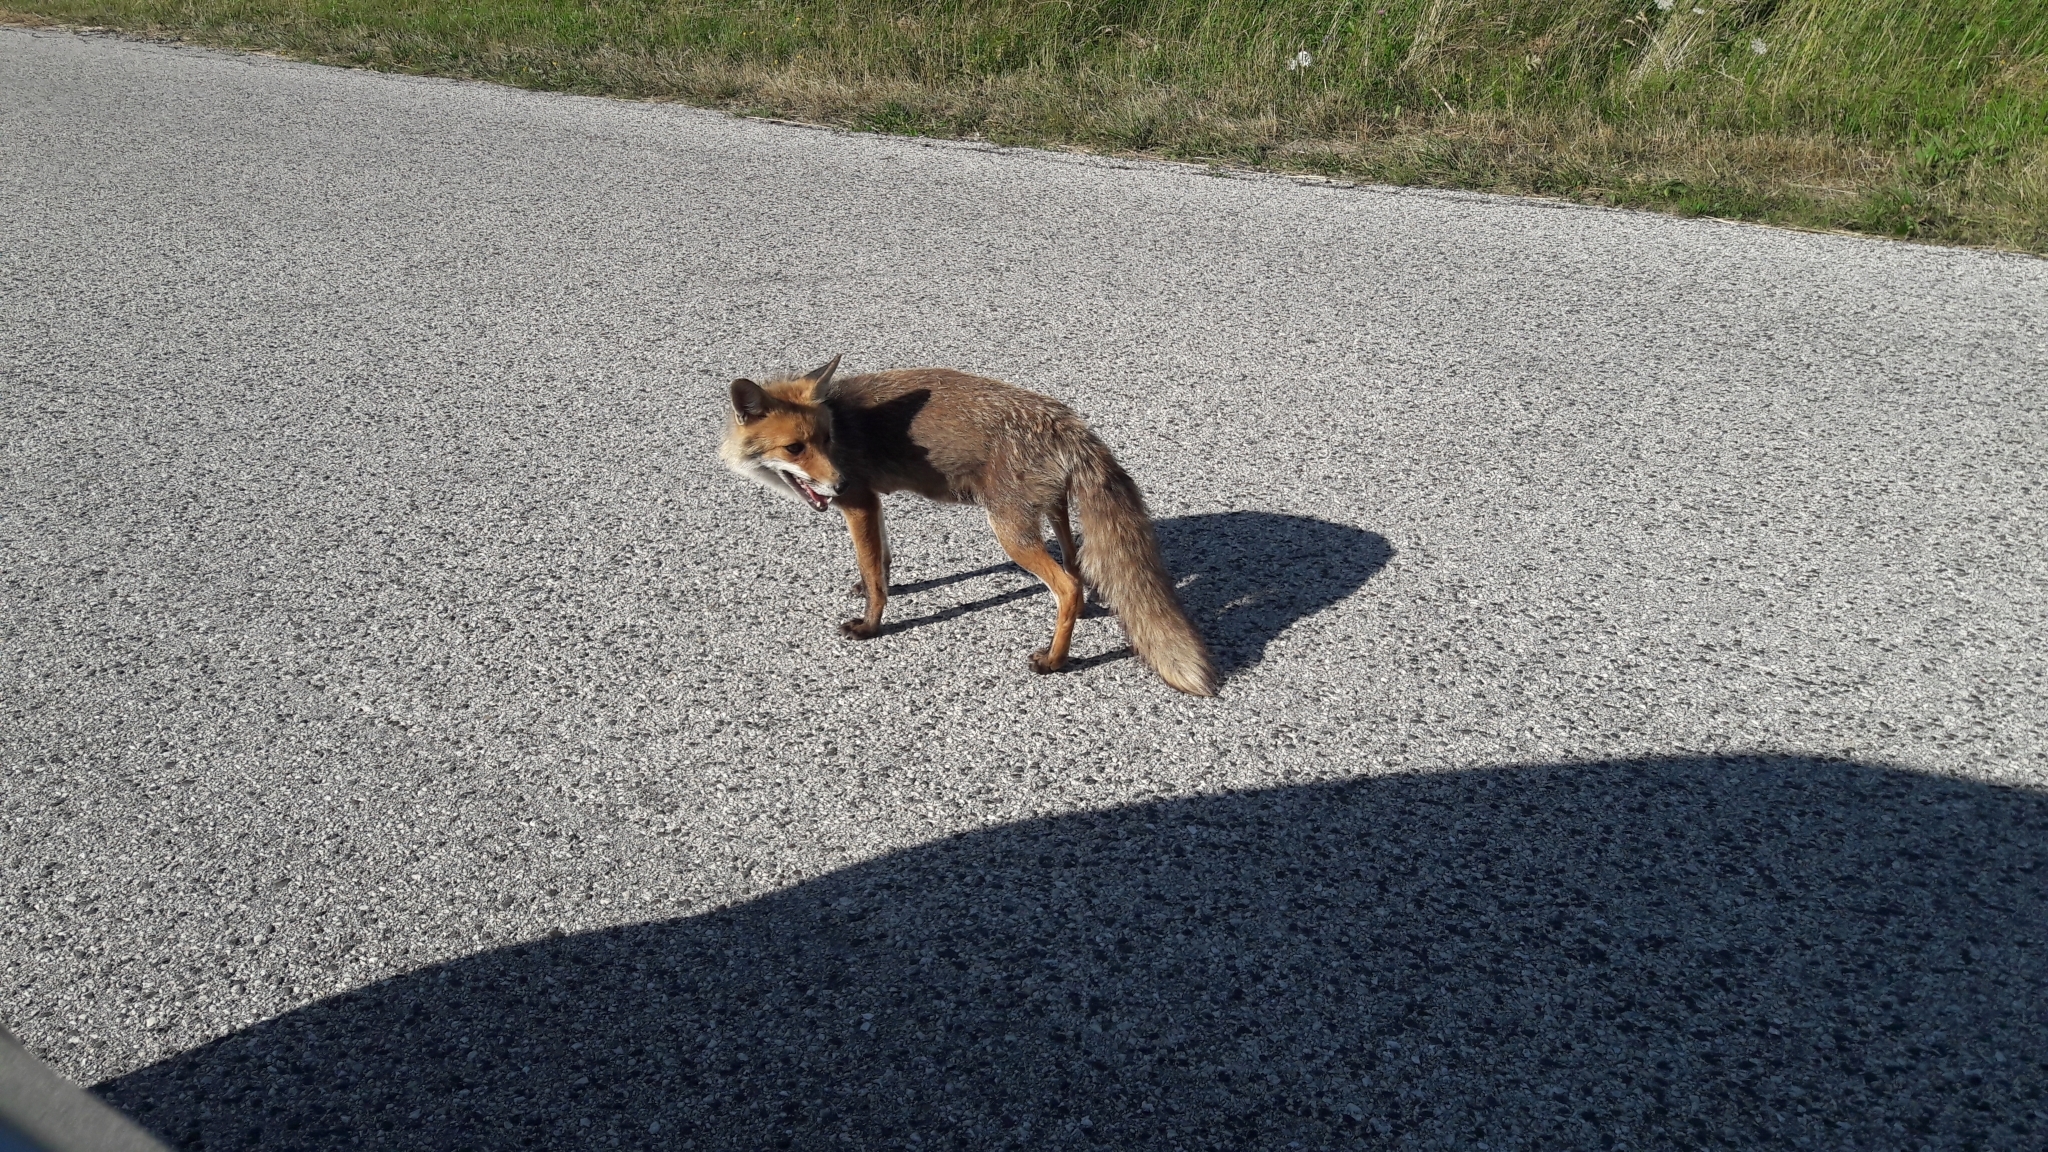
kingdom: Animalia
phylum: Chordata
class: Mammalia
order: Carnivora
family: Canidae
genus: Vulpes
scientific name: Vulpes vulpes
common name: Red fox
